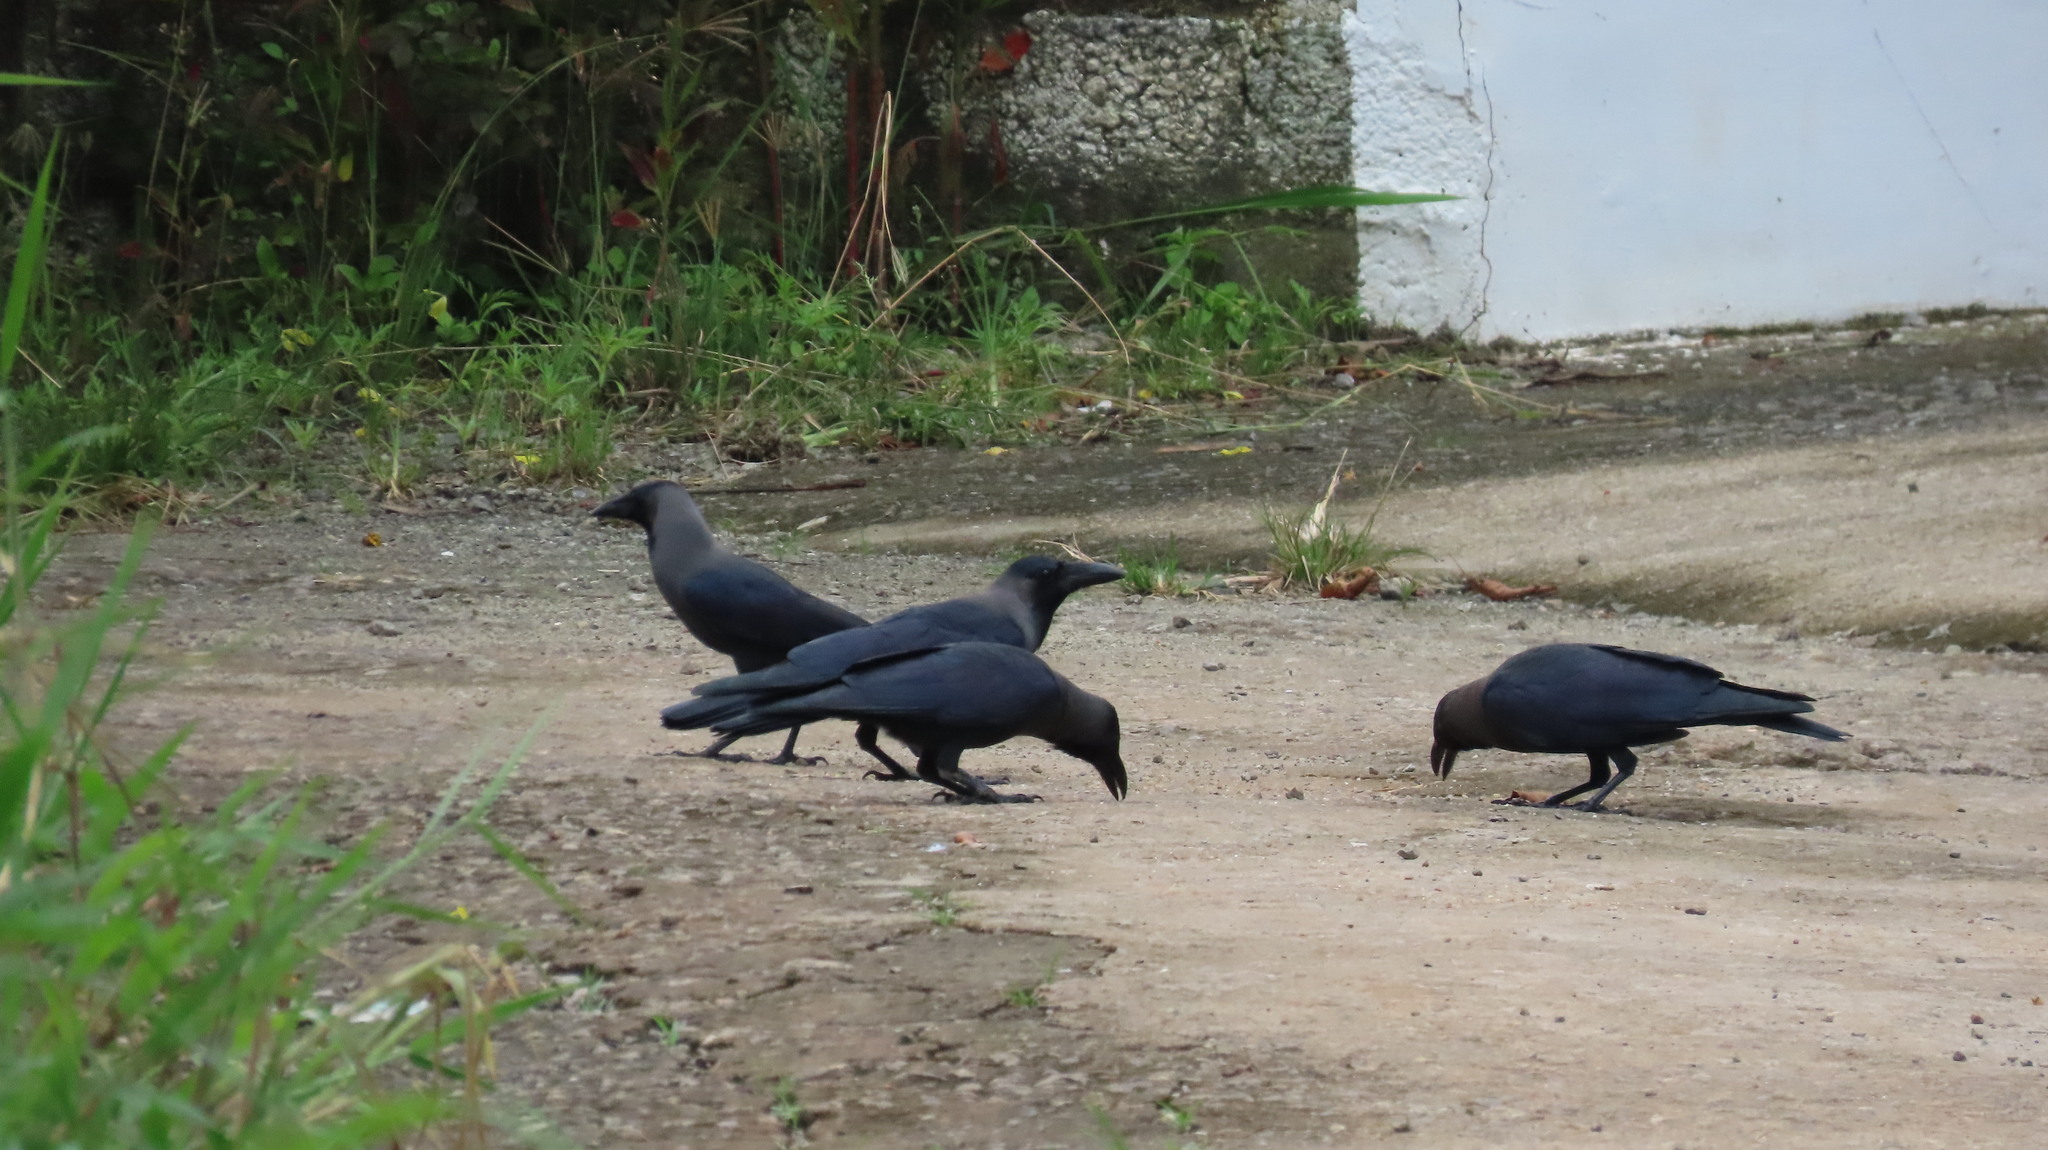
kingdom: Animalia
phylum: Chordata
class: Aves
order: Passeriformes
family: Corvidae
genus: Corvus
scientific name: Corvus splendens
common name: House crow
